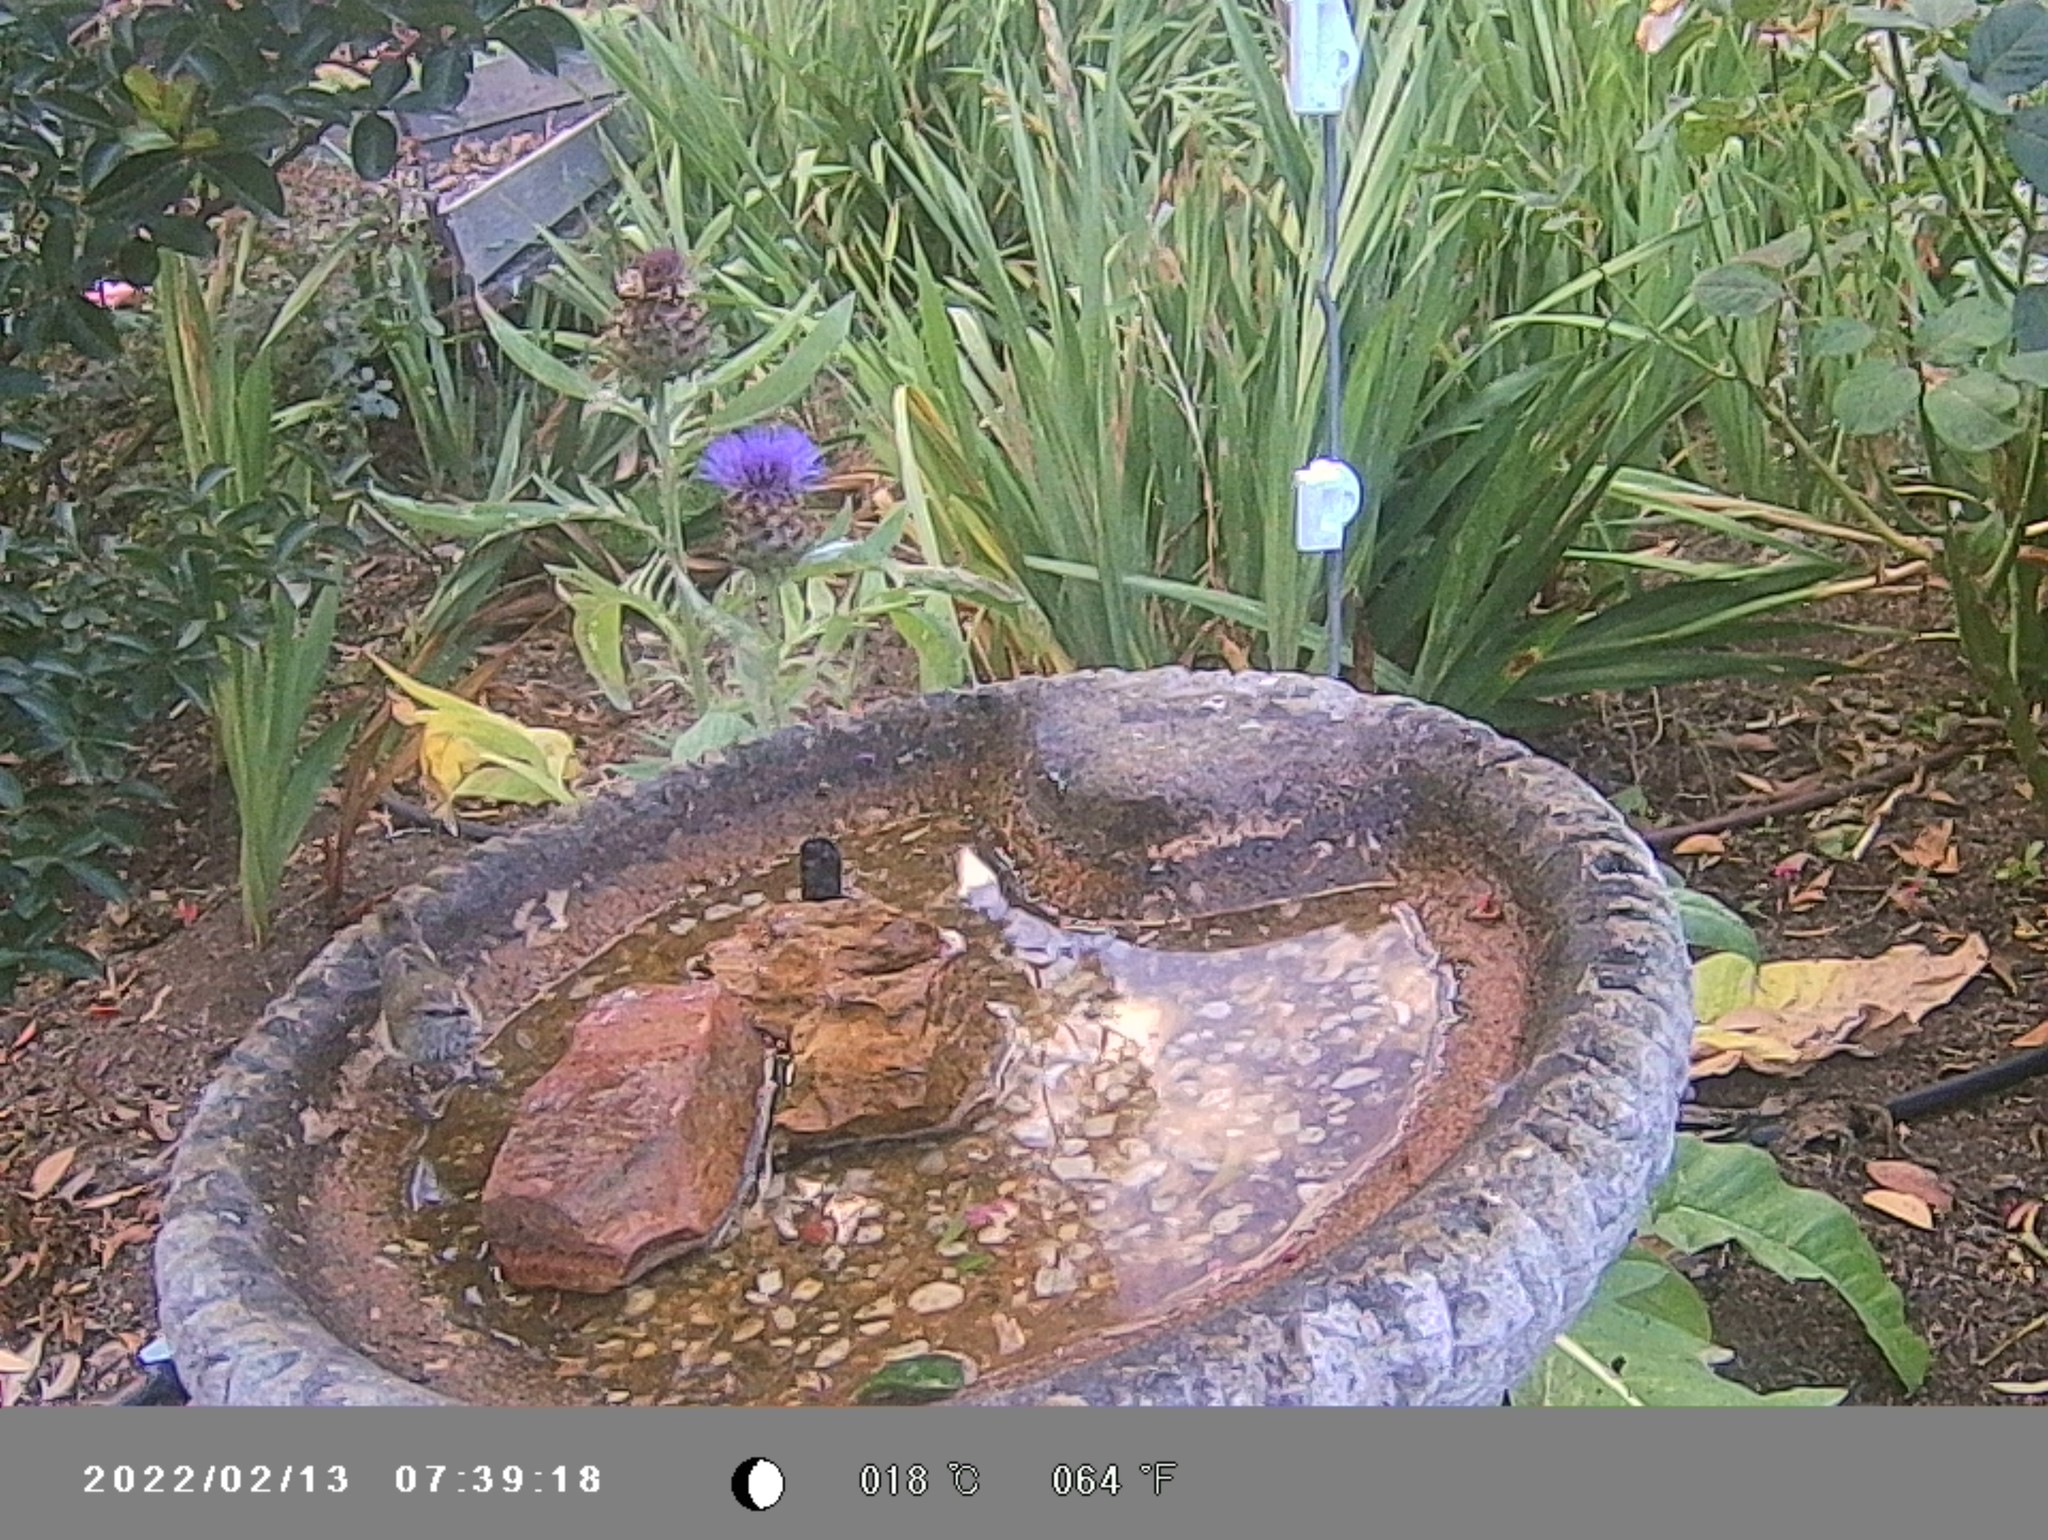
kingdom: Animalia
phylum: Chordata
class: Aves
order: Passeriformes
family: Acanthizidae
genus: Acanthiza
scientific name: Acanthiza lineata
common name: Striated thornbill
